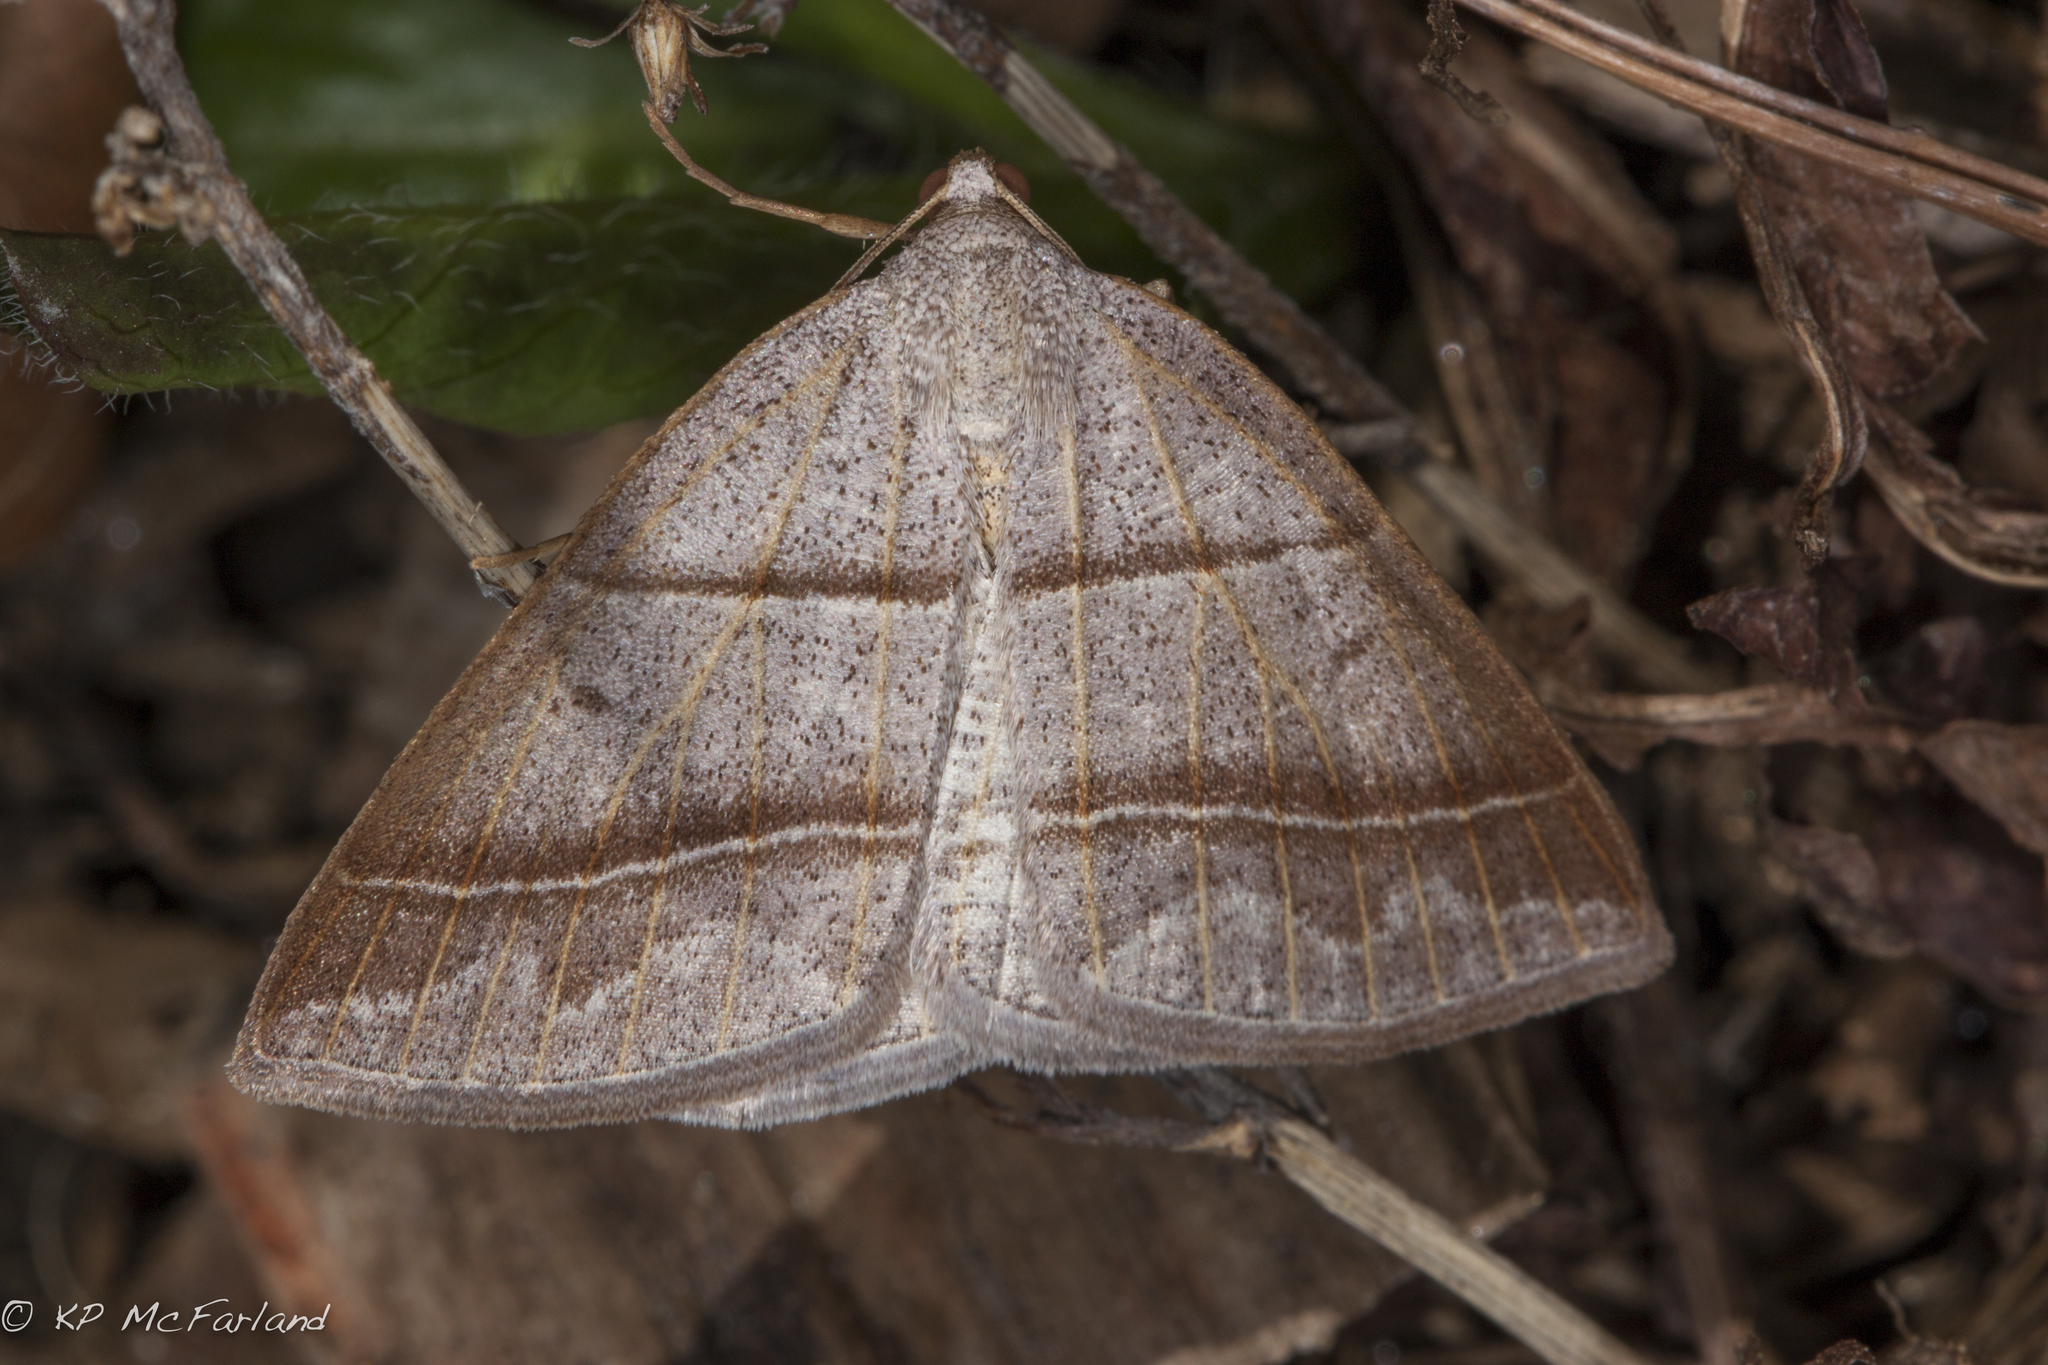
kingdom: Animalia
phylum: Arthropoda
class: Insecta
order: Lepidoptera
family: Pterophoridae
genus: Pterophorus
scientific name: Pterophorus Petrophora subaequaria
